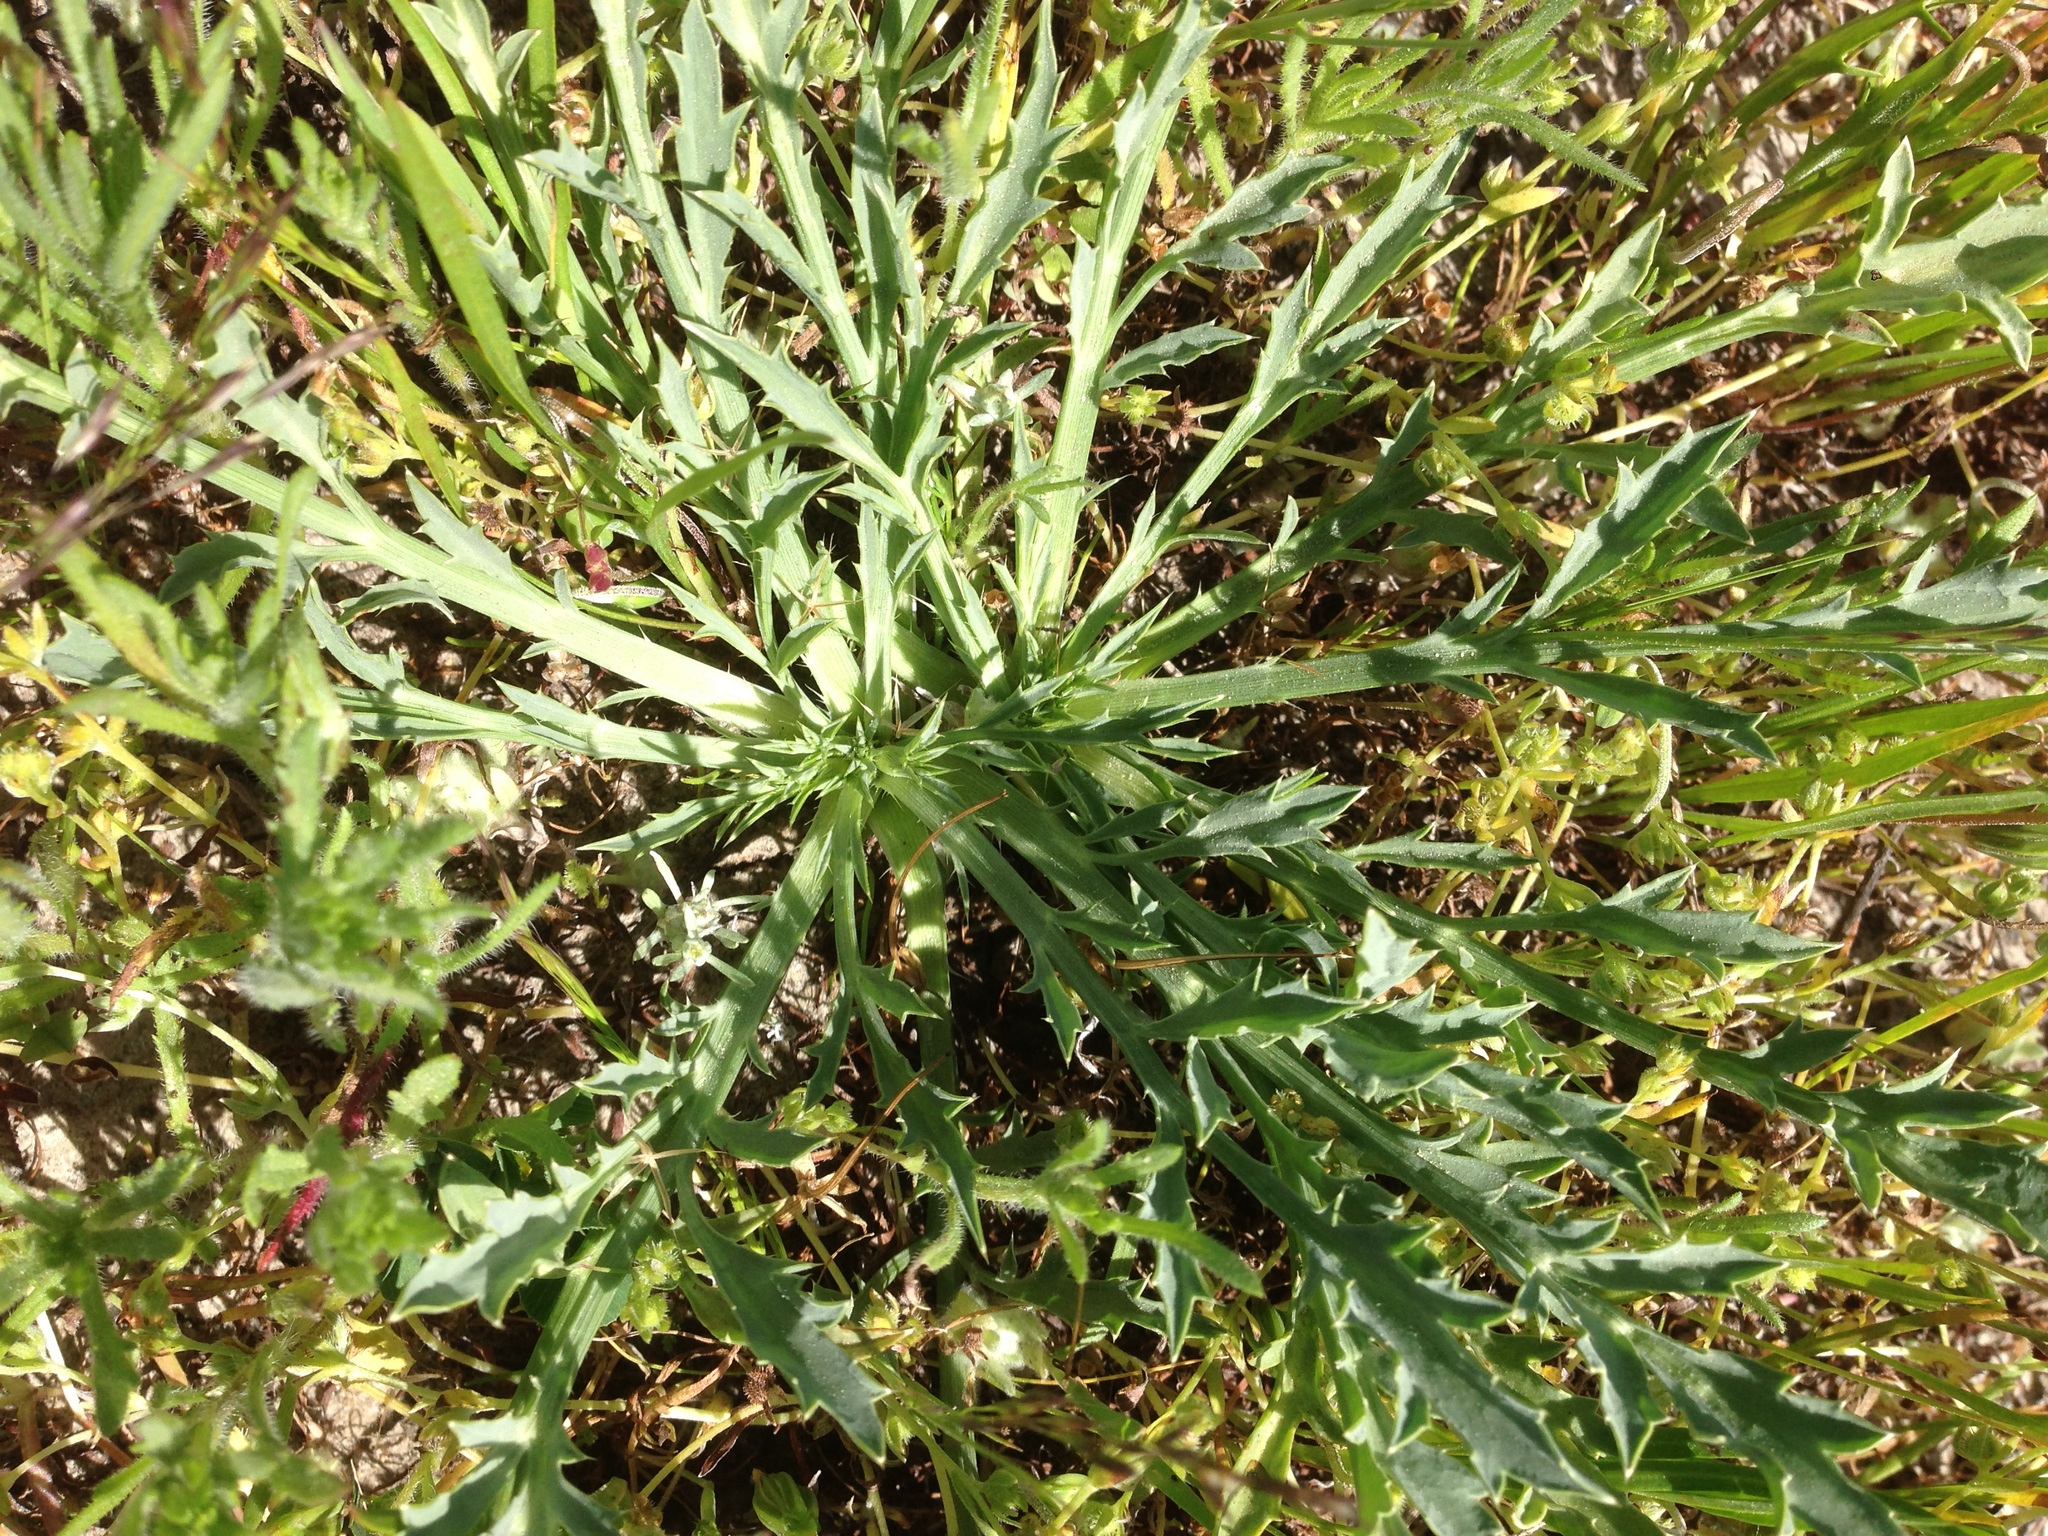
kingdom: Plantae
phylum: Tracheophyta
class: Magnoliopsida
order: Apiales
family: Apiaceae
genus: Eryngium
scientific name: Eryngium aristulatum
